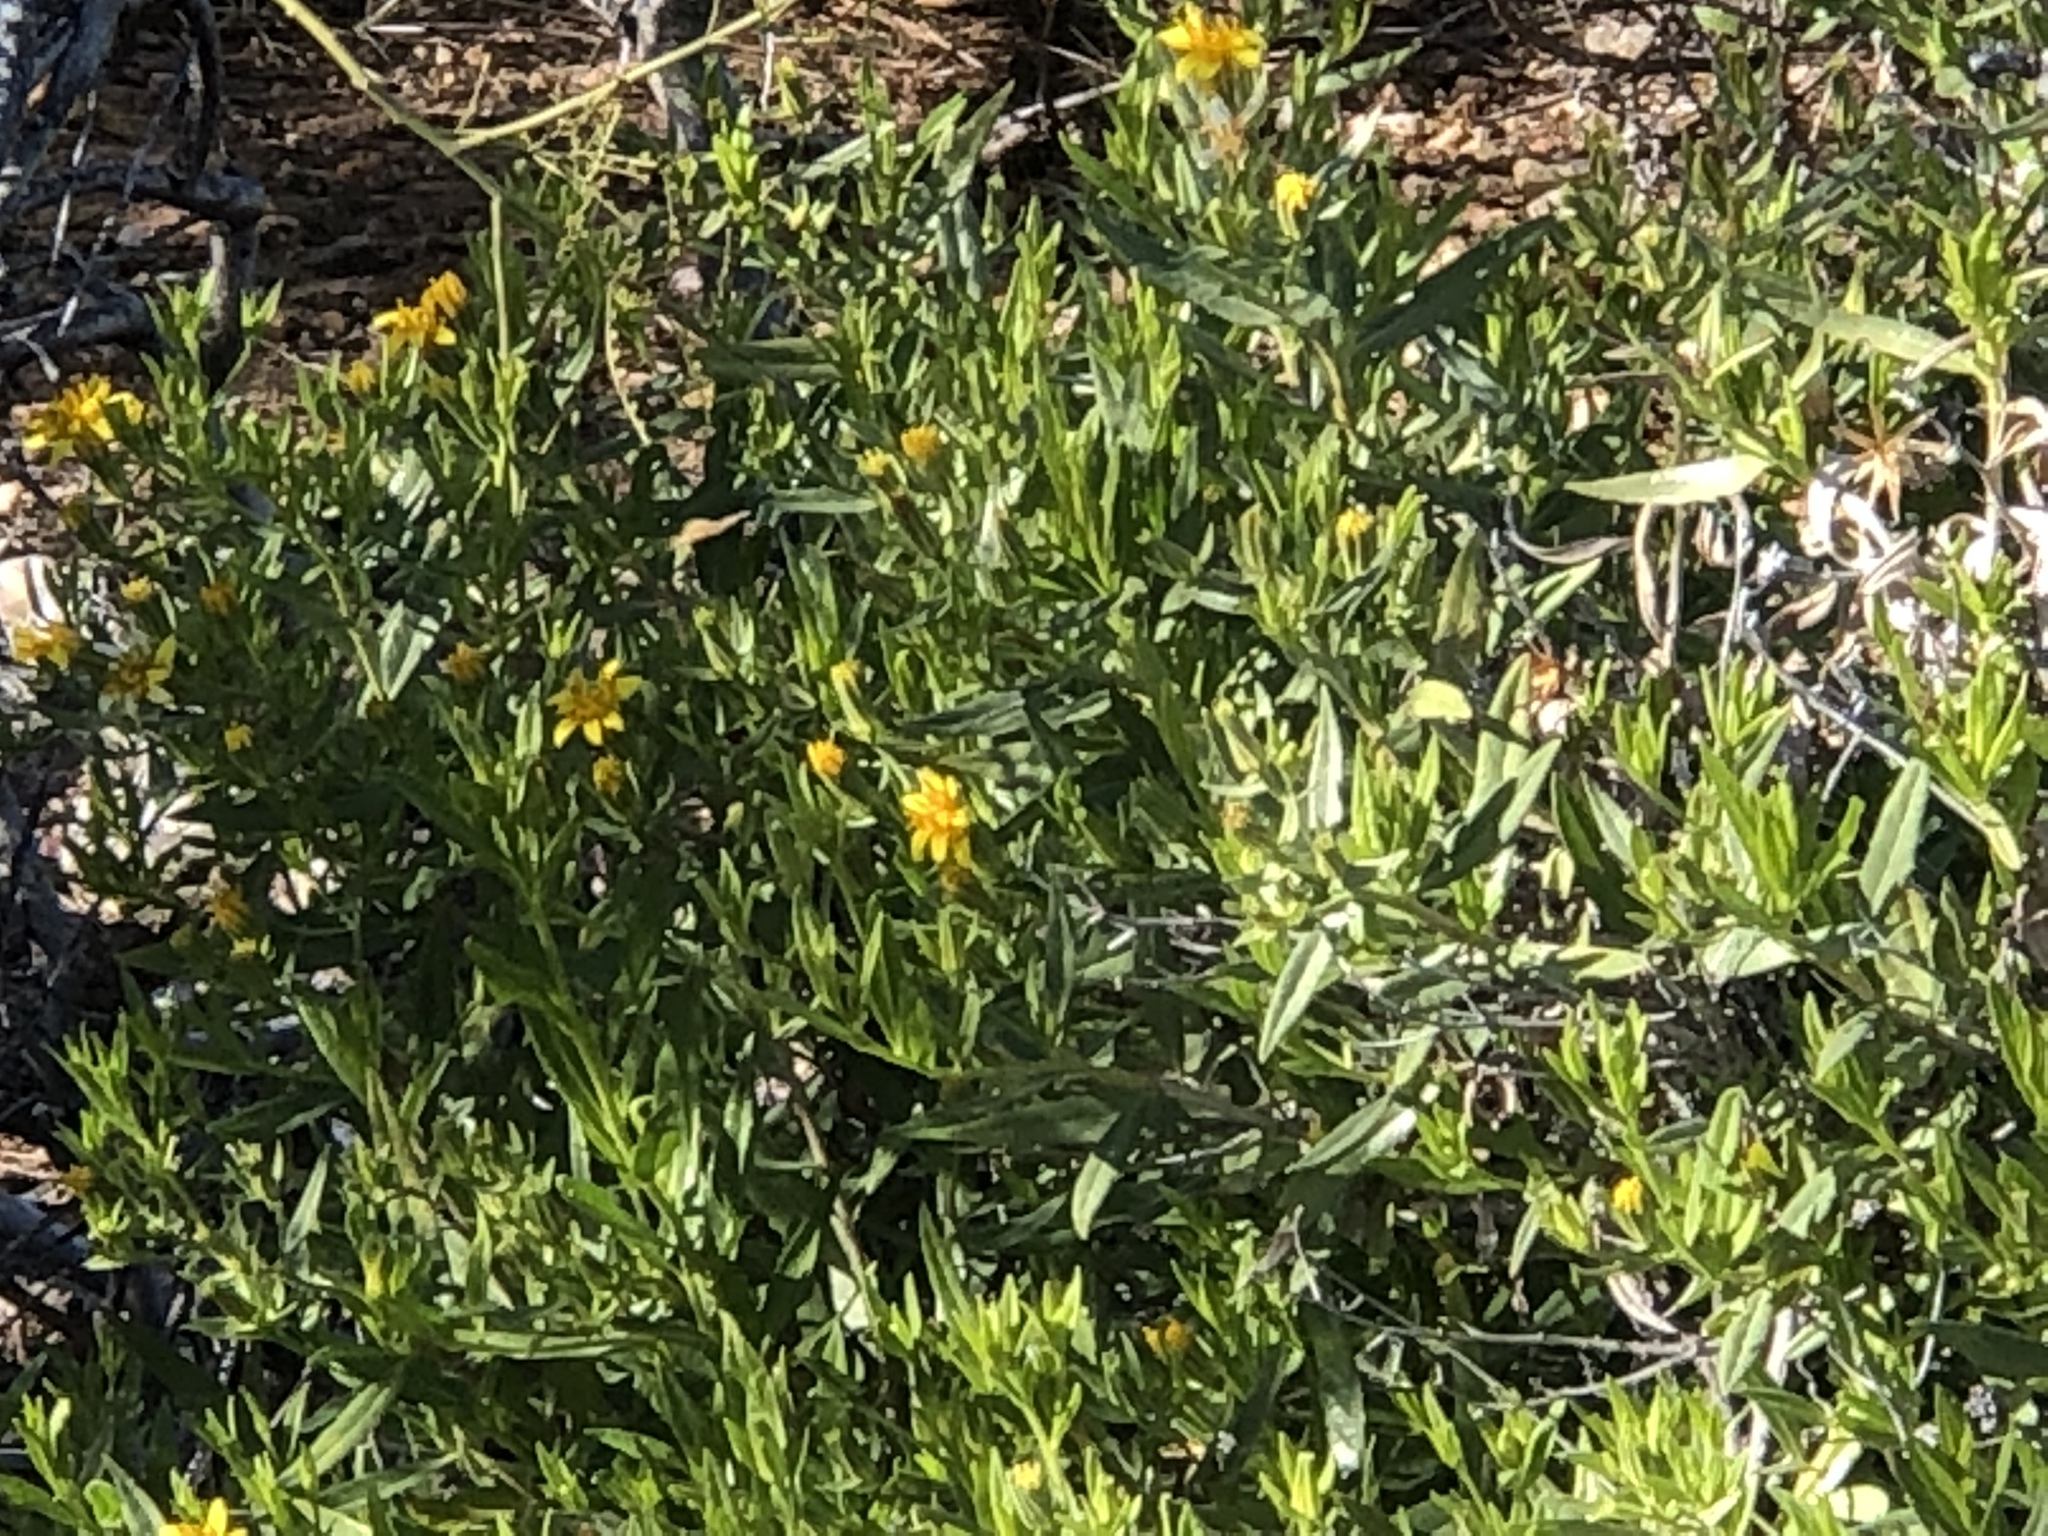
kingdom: Plantae
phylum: Tracheophyta
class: Magnoliopsida
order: Asterales
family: Asteraceae
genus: Trixis
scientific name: Trixis californica
